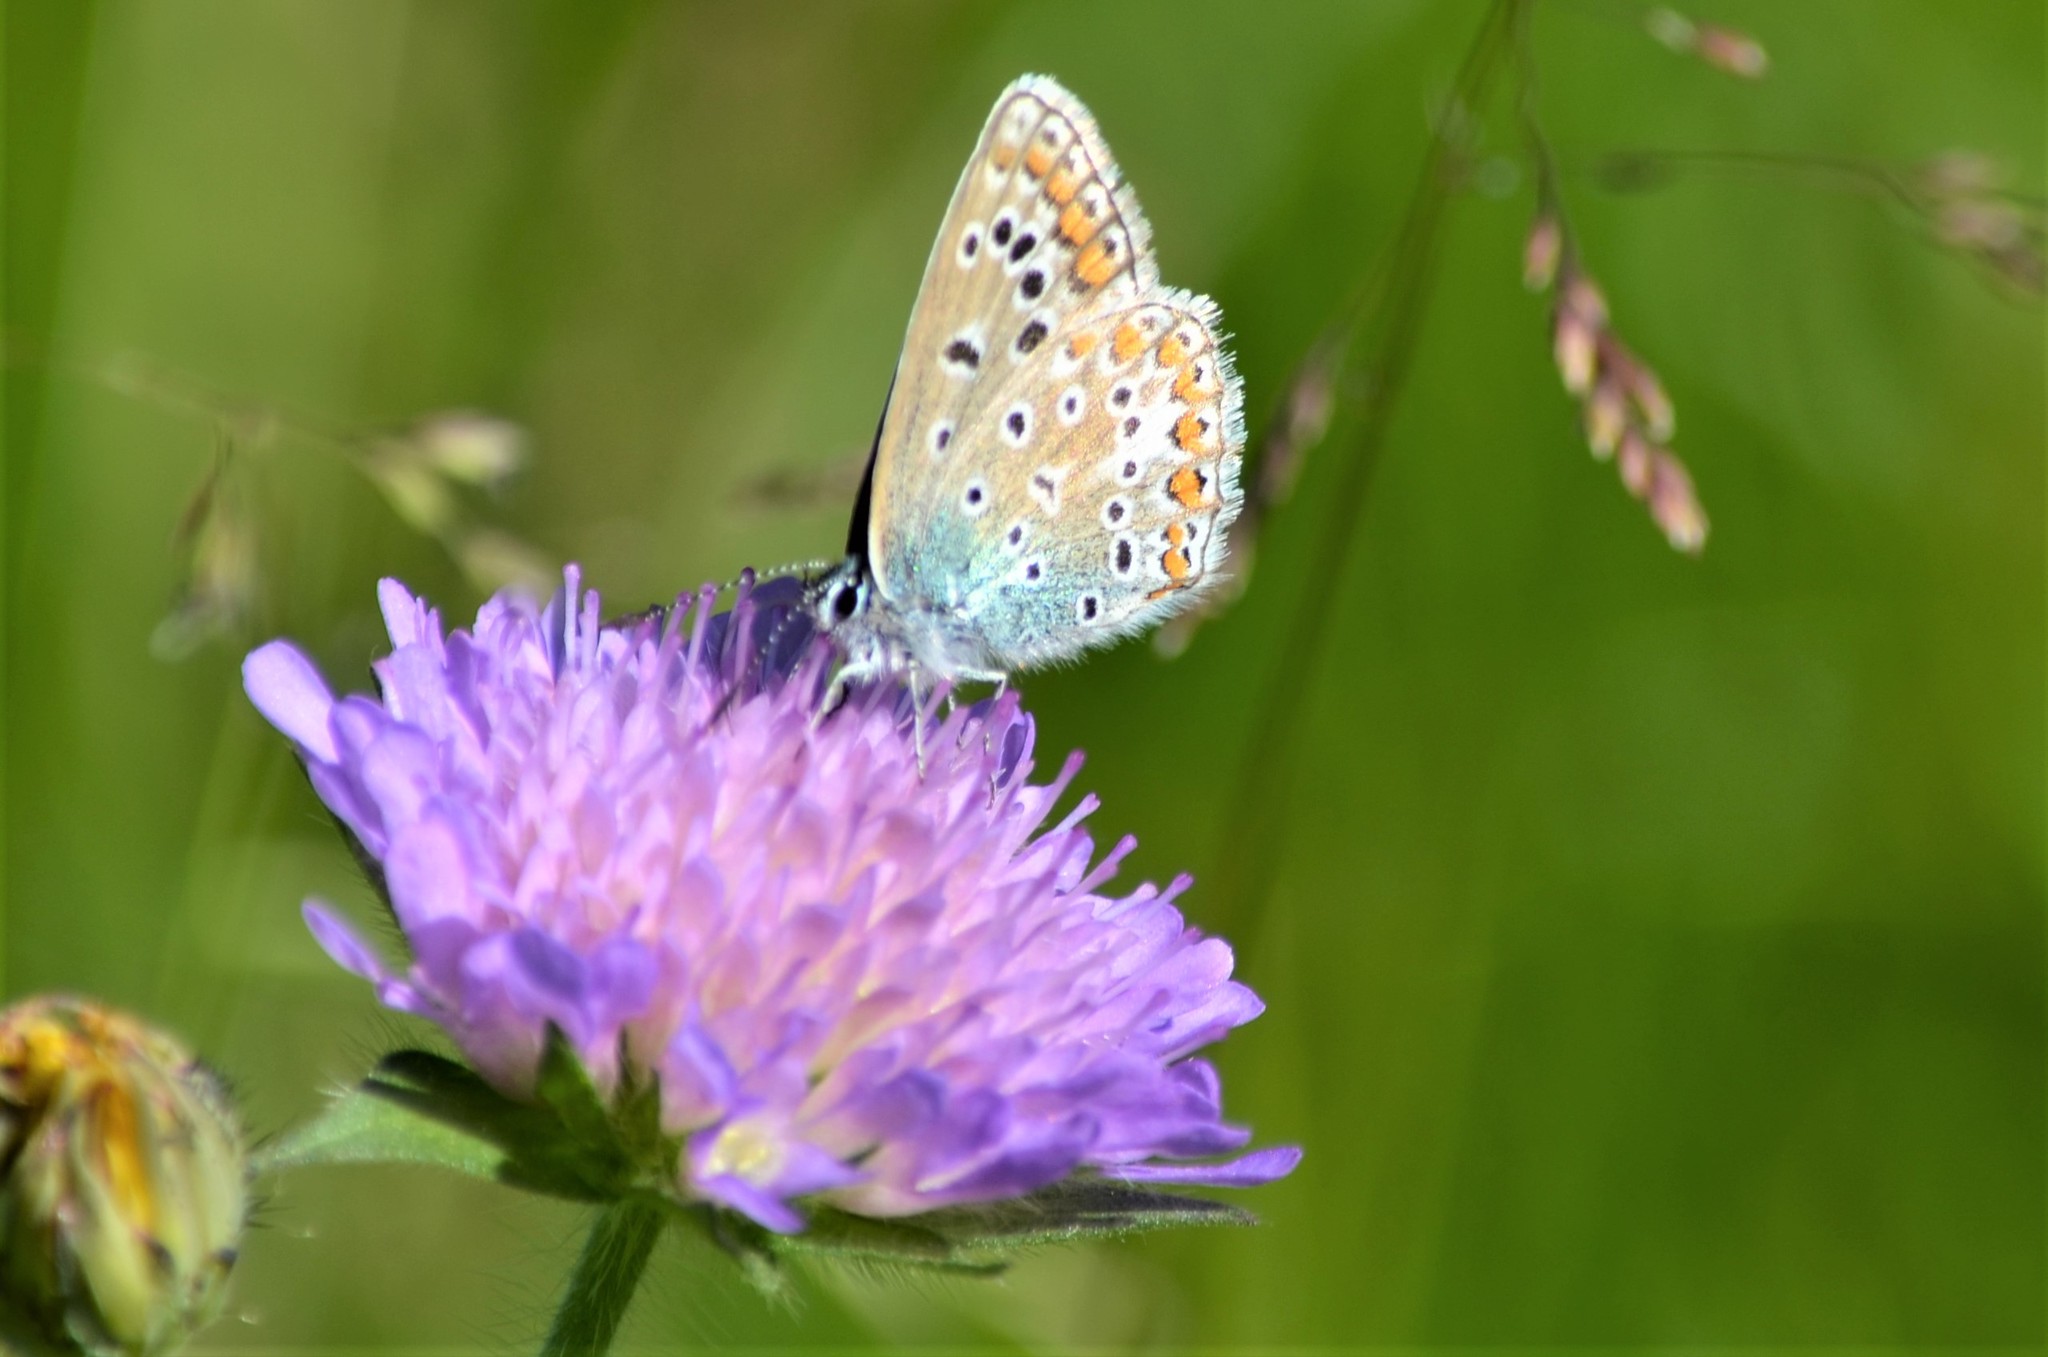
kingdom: Animalia
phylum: Arthropoda
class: Insecta
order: Lepidoptera
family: Lycaenidae
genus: Polyommatus
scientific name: Polyommatus icarus
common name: Common blue
